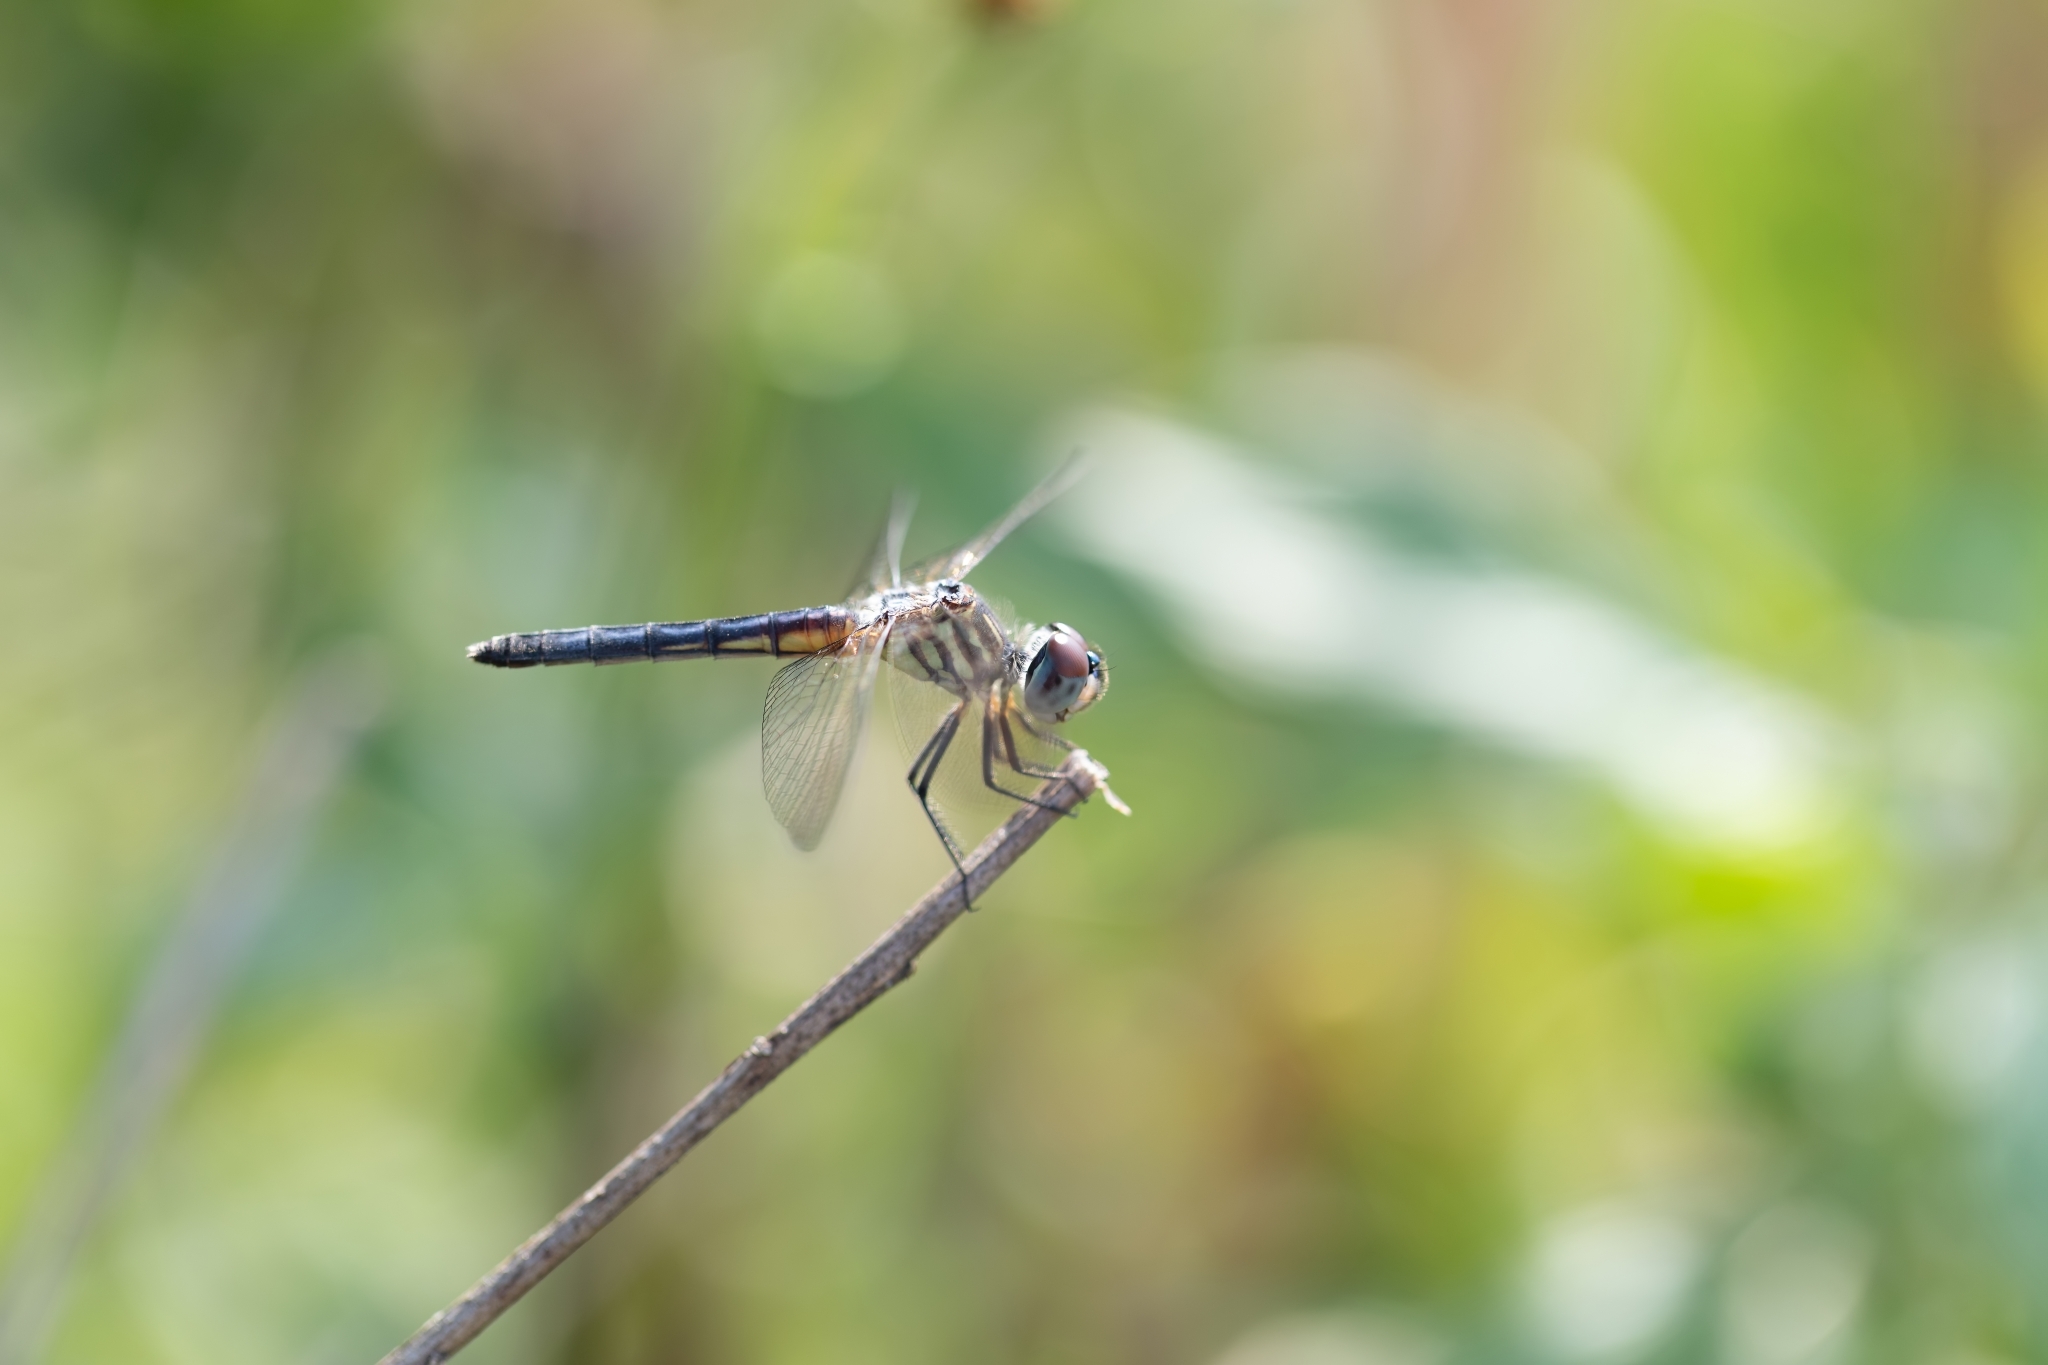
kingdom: Animalia
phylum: Arthropoda
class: Insecta
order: Odonata
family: Libellulidae
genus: Pachydiplax
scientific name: Pachydiplax longipennis
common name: Blue dasher
